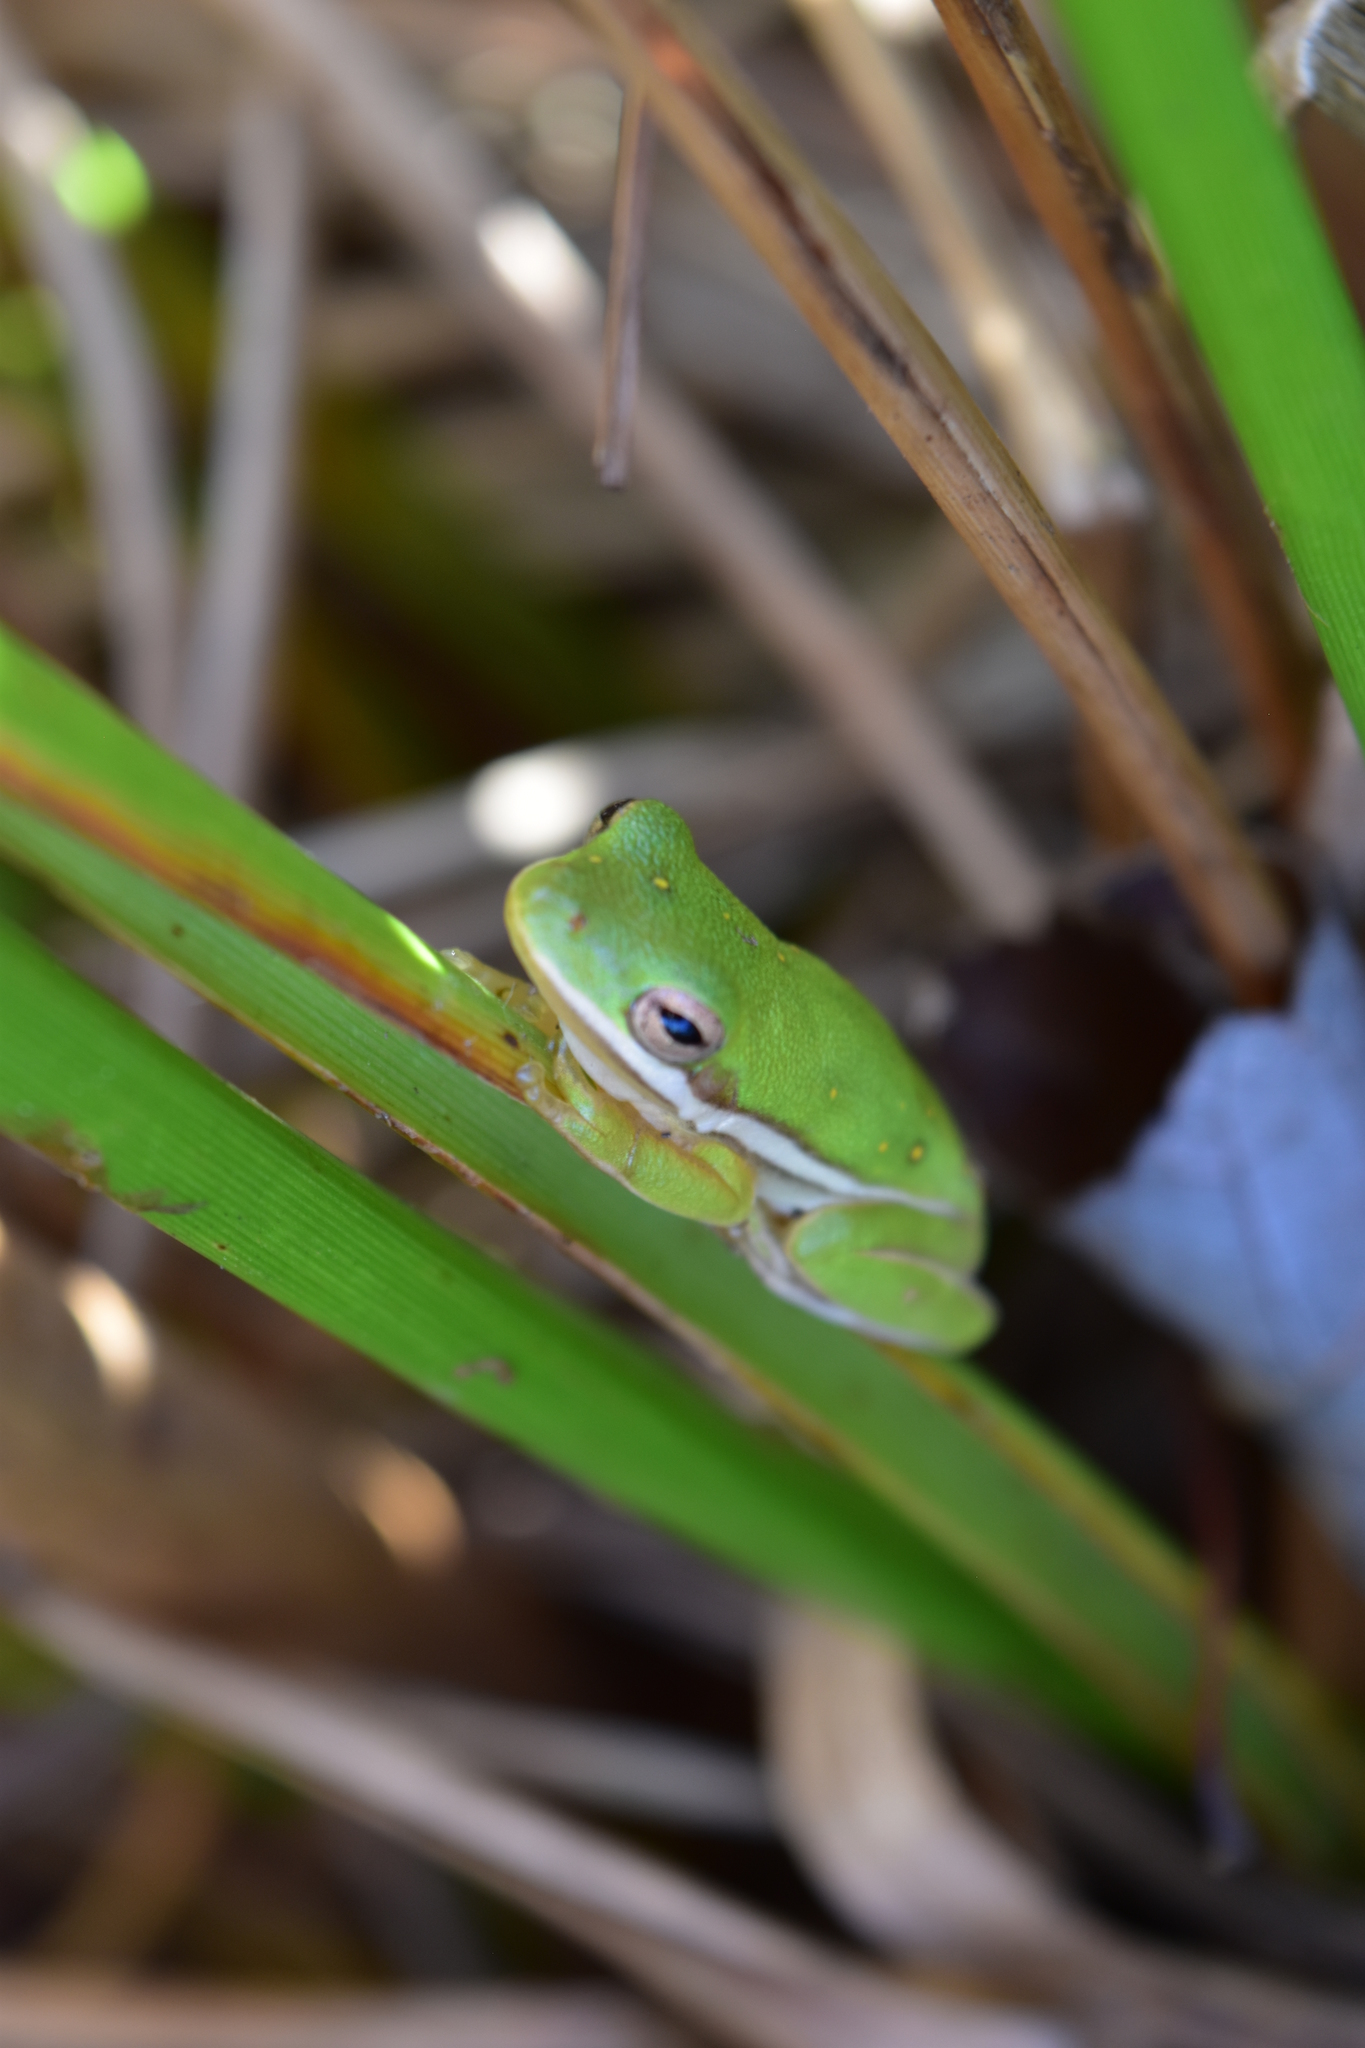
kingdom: Animalia
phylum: Chordata
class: Amphibia
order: Anura
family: Hylidae
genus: Dryophytes
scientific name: Dryophytes cinereus
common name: Green treefrog
